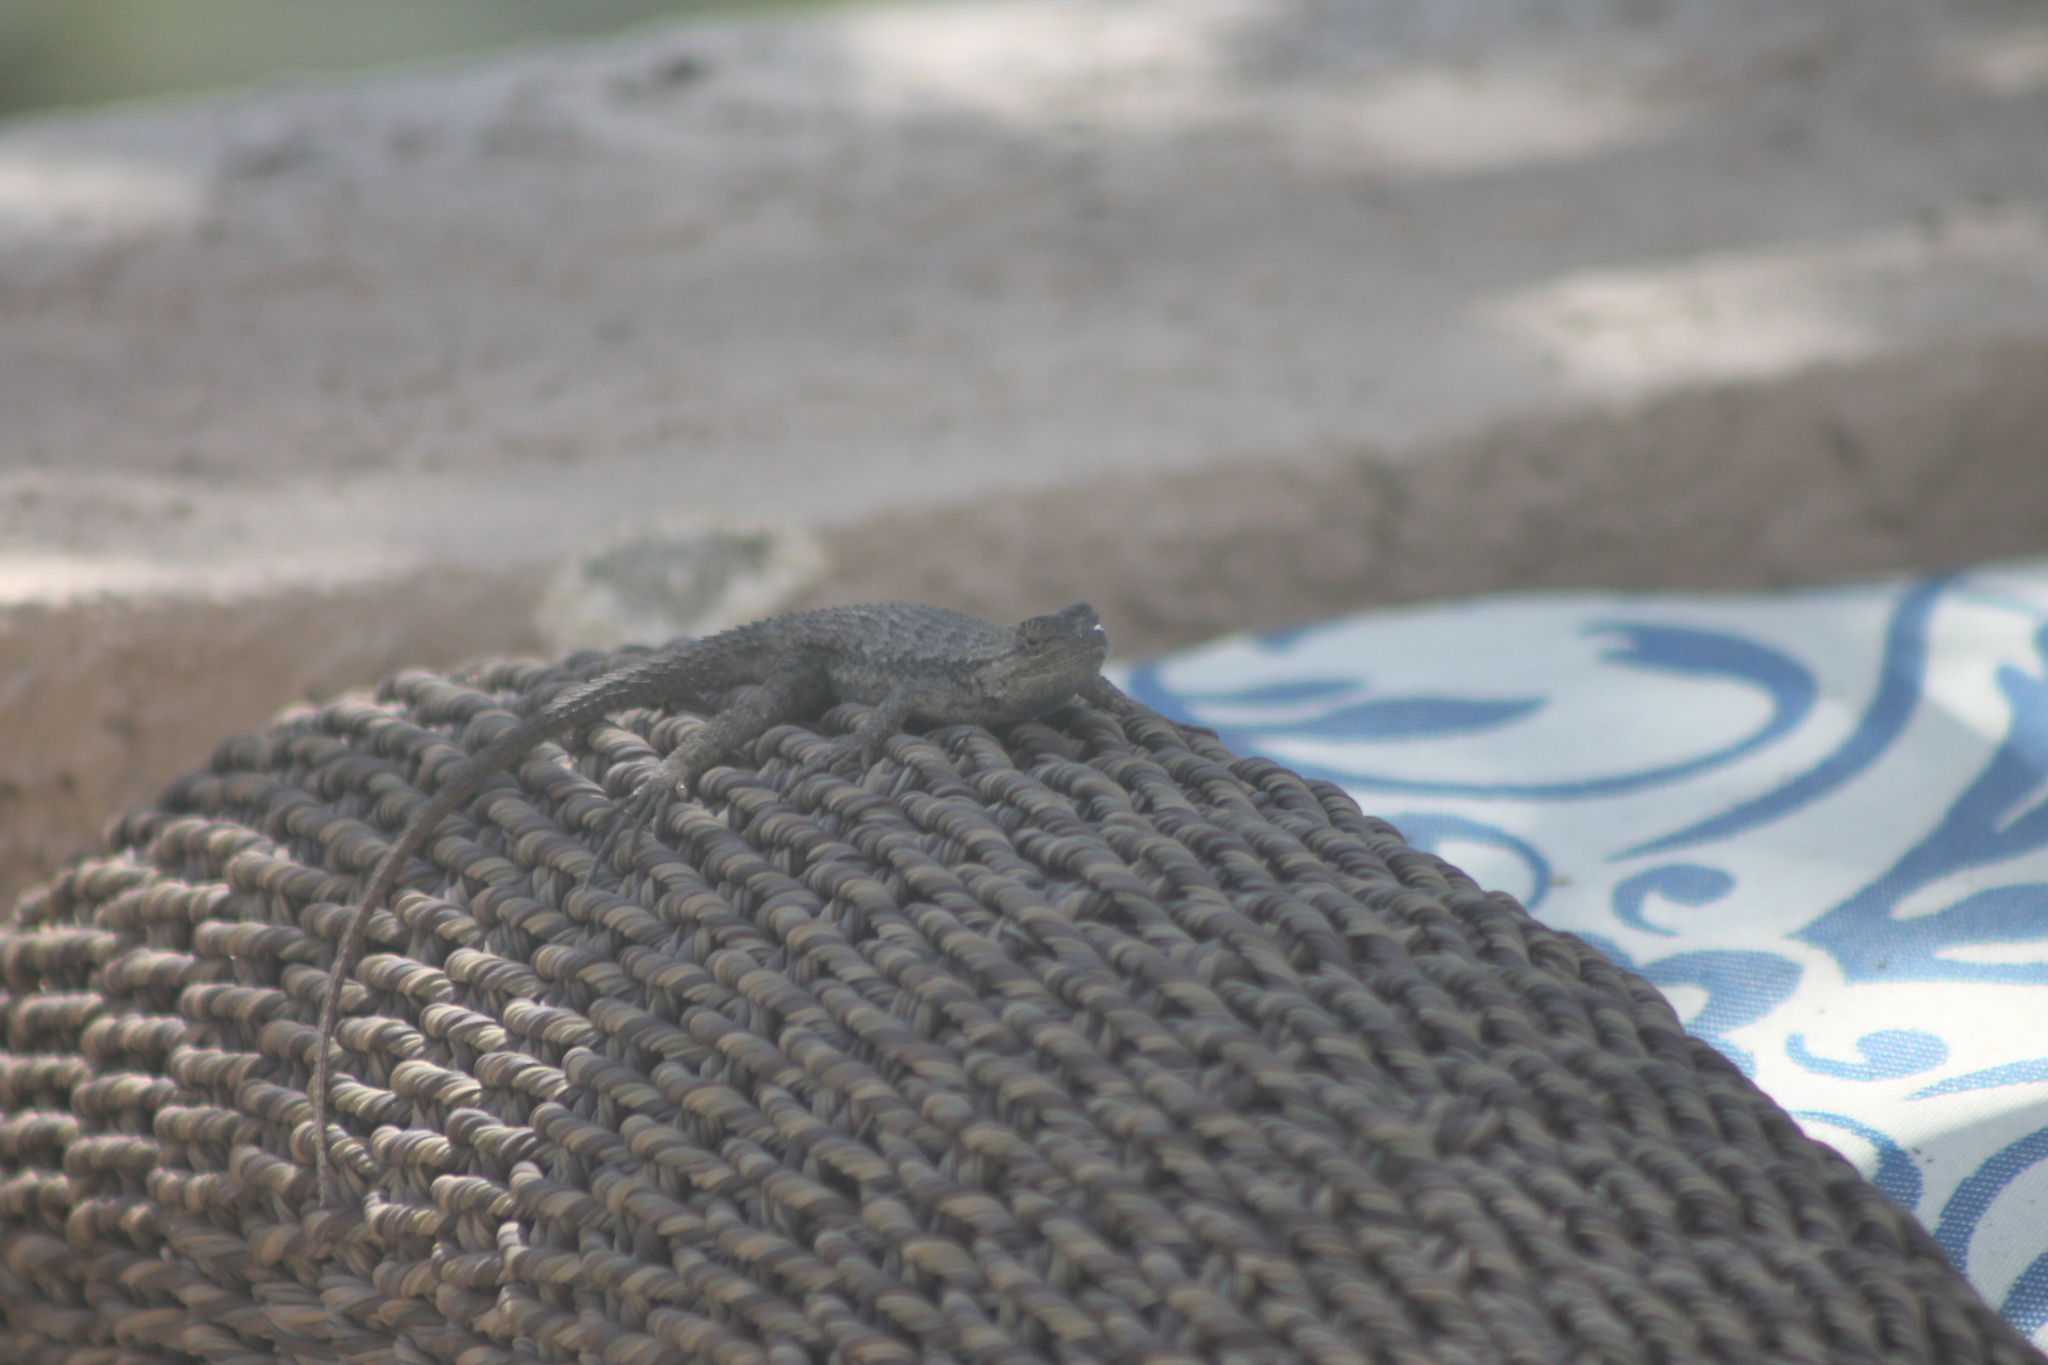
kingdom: Animalia
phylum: Chordata
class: Squamata
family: Phrynosomatidae
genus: Sceloporus
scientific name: Sceloporus occidentalis
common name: Western fence lizard
